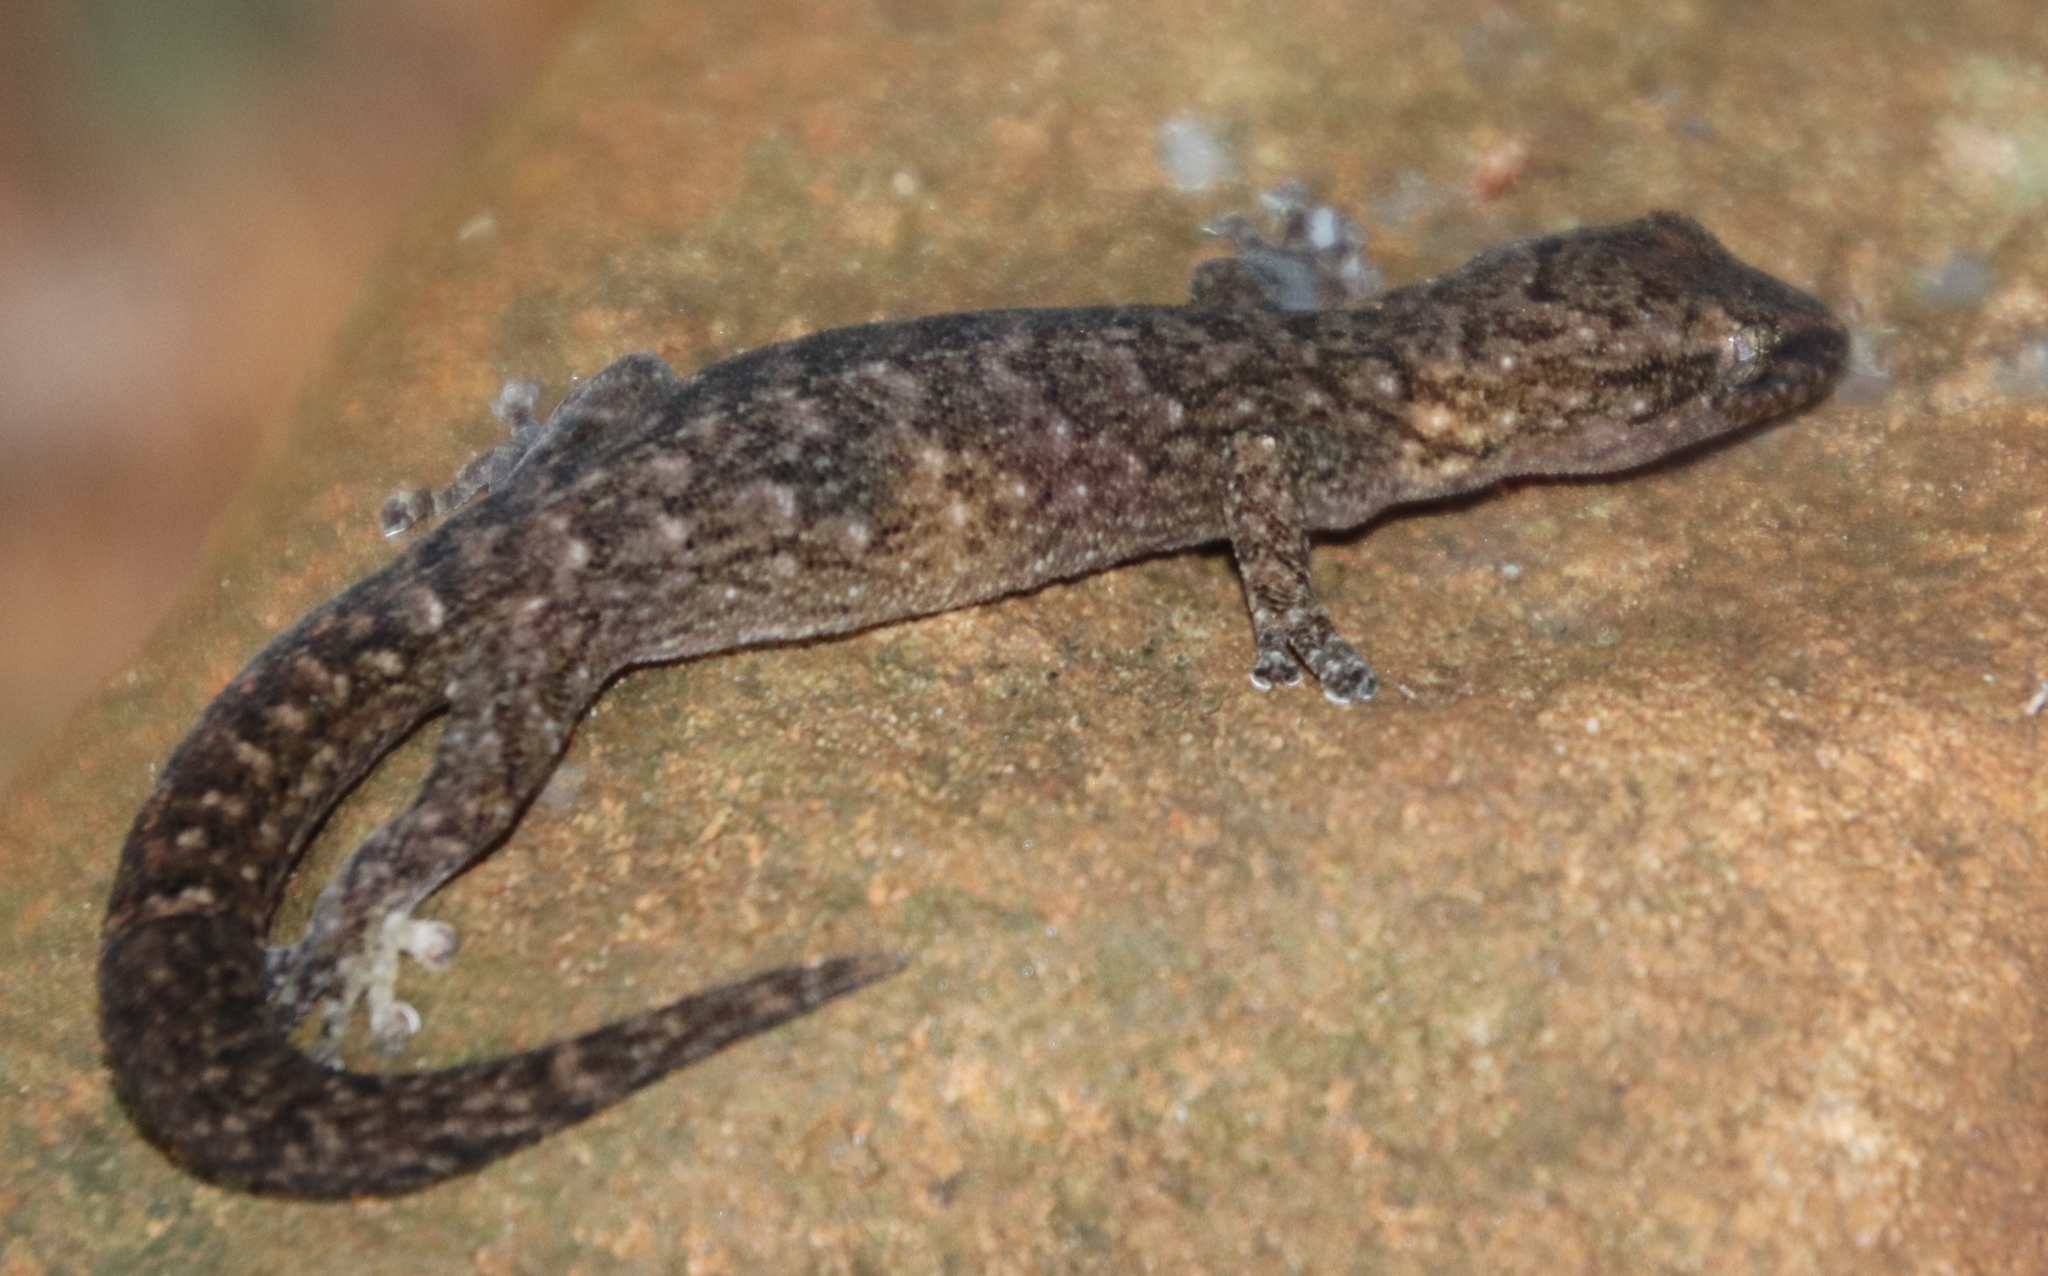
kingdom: Animalia
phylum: Chordata
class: Squamata
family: Gekkonidae
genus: Afrogecko
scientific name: Afrogecko porphyreus
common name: Marbled leaf-toed gecko
